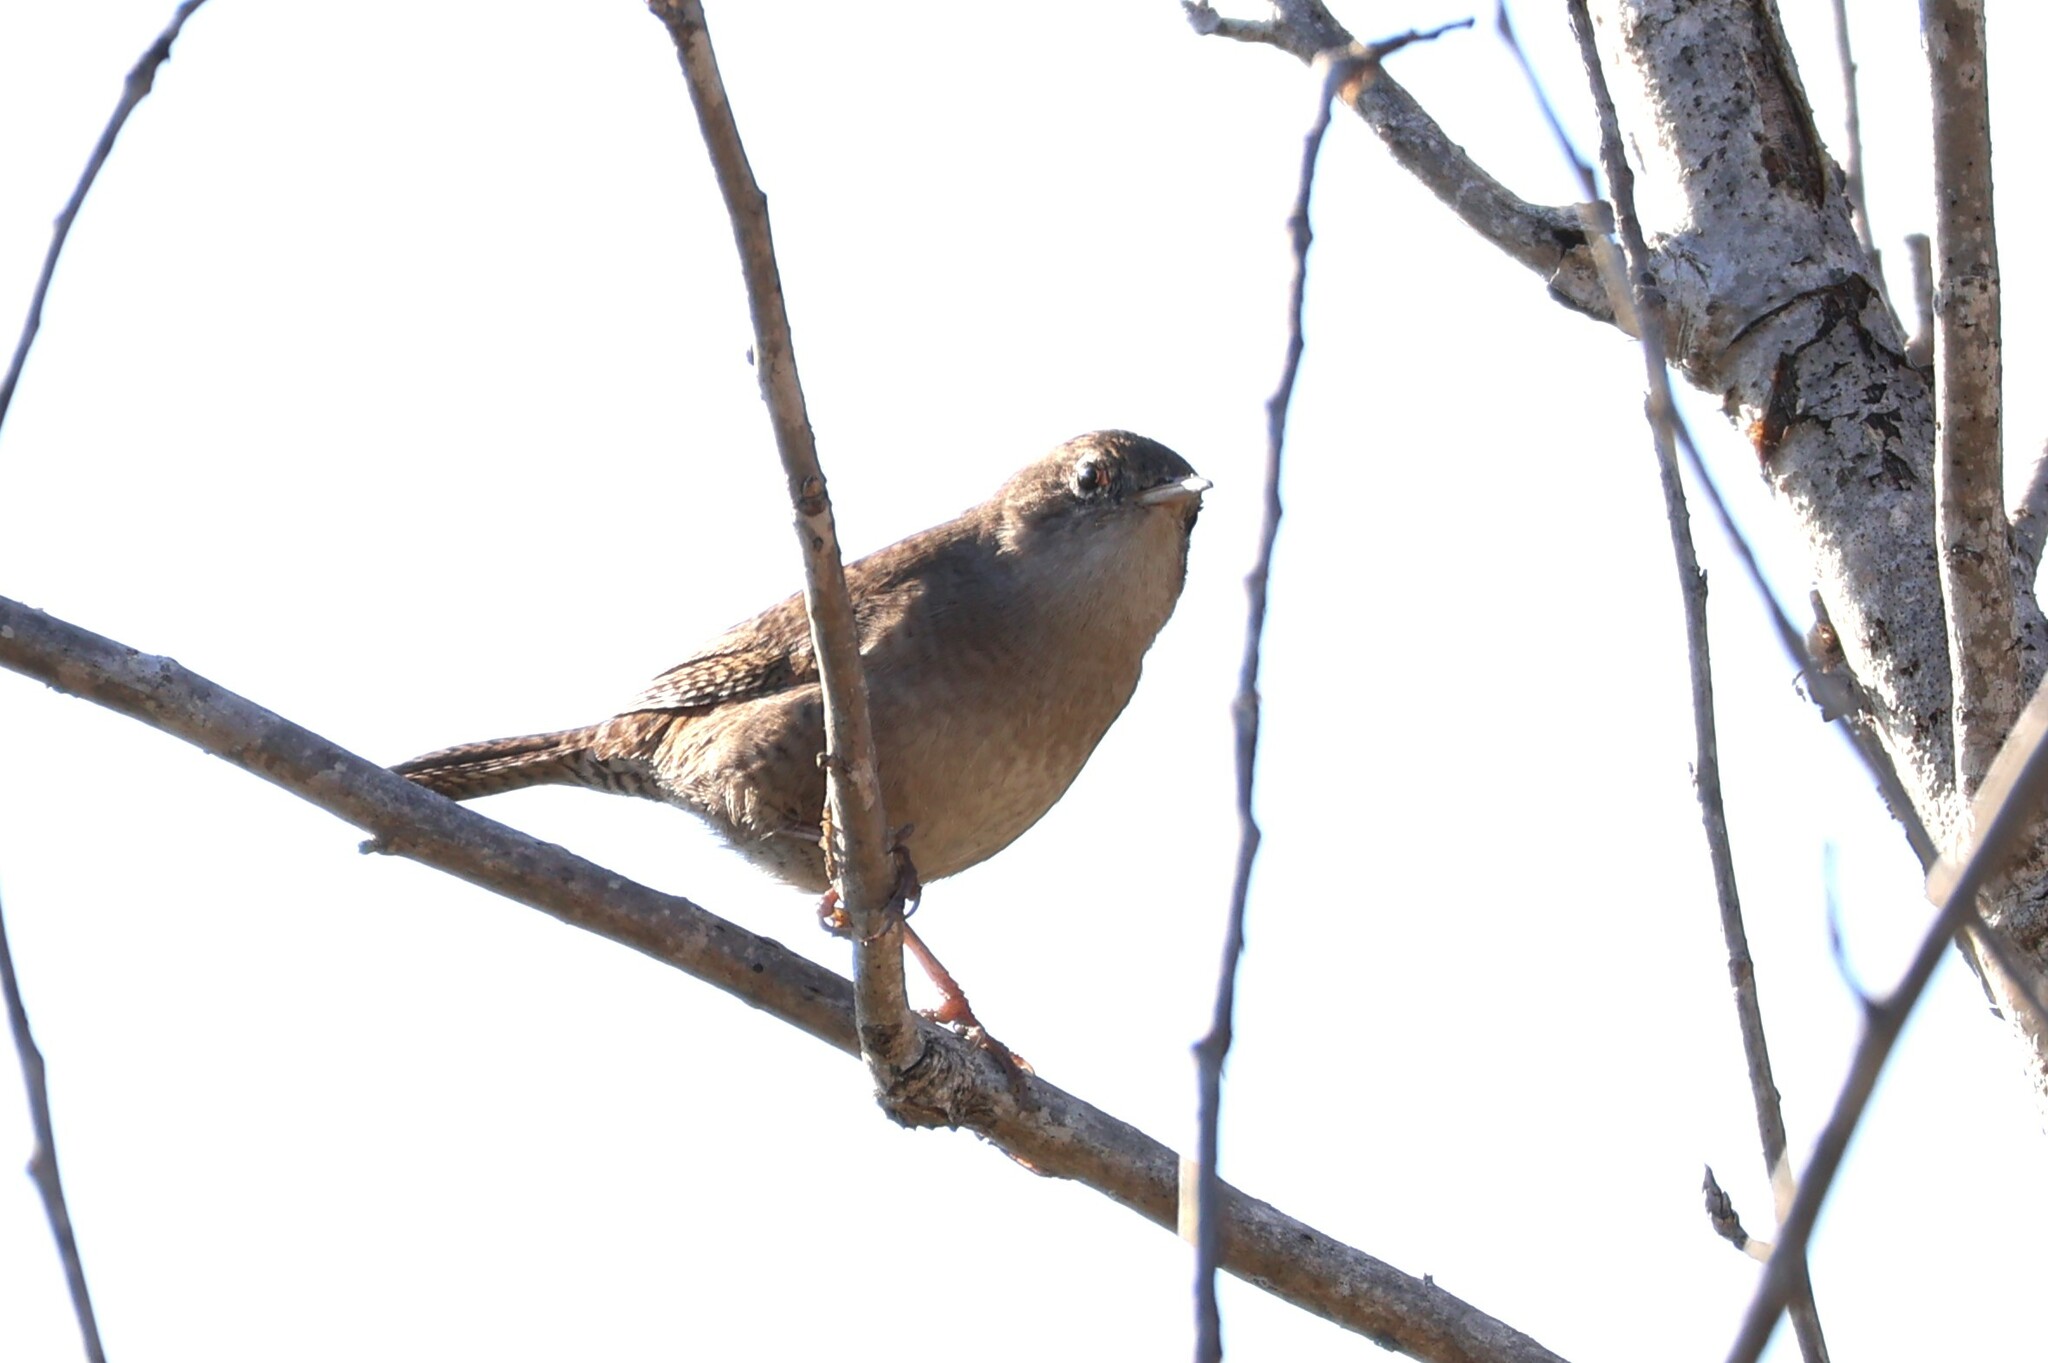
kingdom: Animalia
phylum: Chordata
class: Aves
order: Passeriformes
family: Troglodytidae
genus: Troglodytes
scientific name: Troglodytes aedon
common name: House wren
